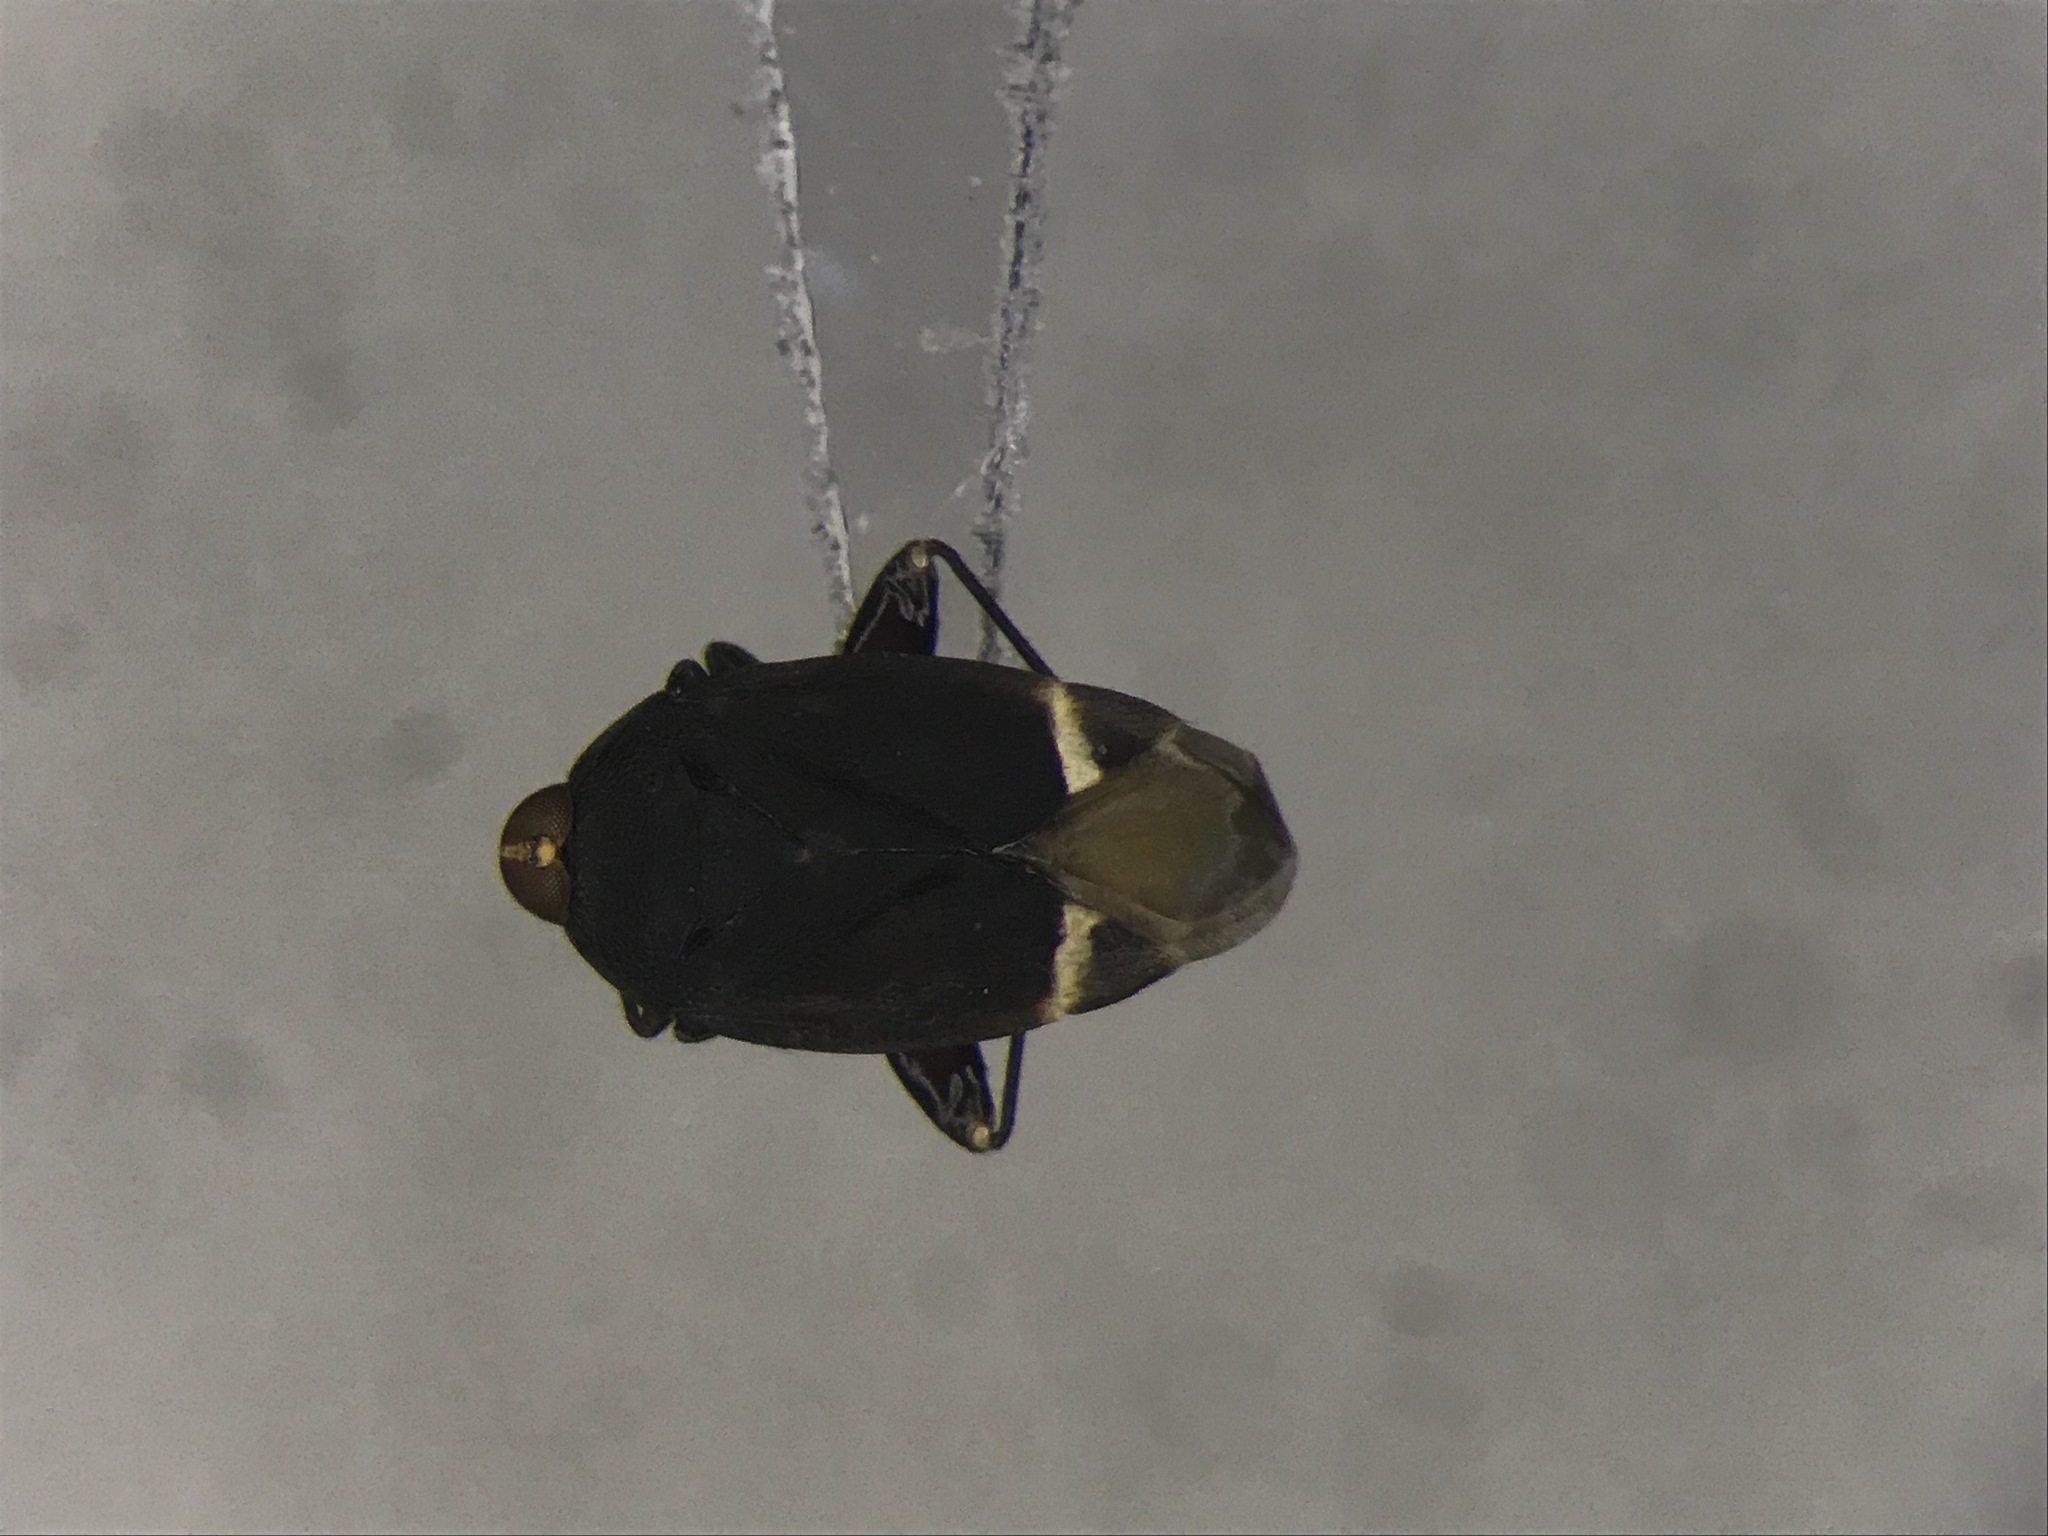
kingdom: Animalia
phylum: Arthropoda
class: Insecta
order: Hemiptera
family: Miridae
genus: Myiomma
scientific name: Myiomma cixiiforme
